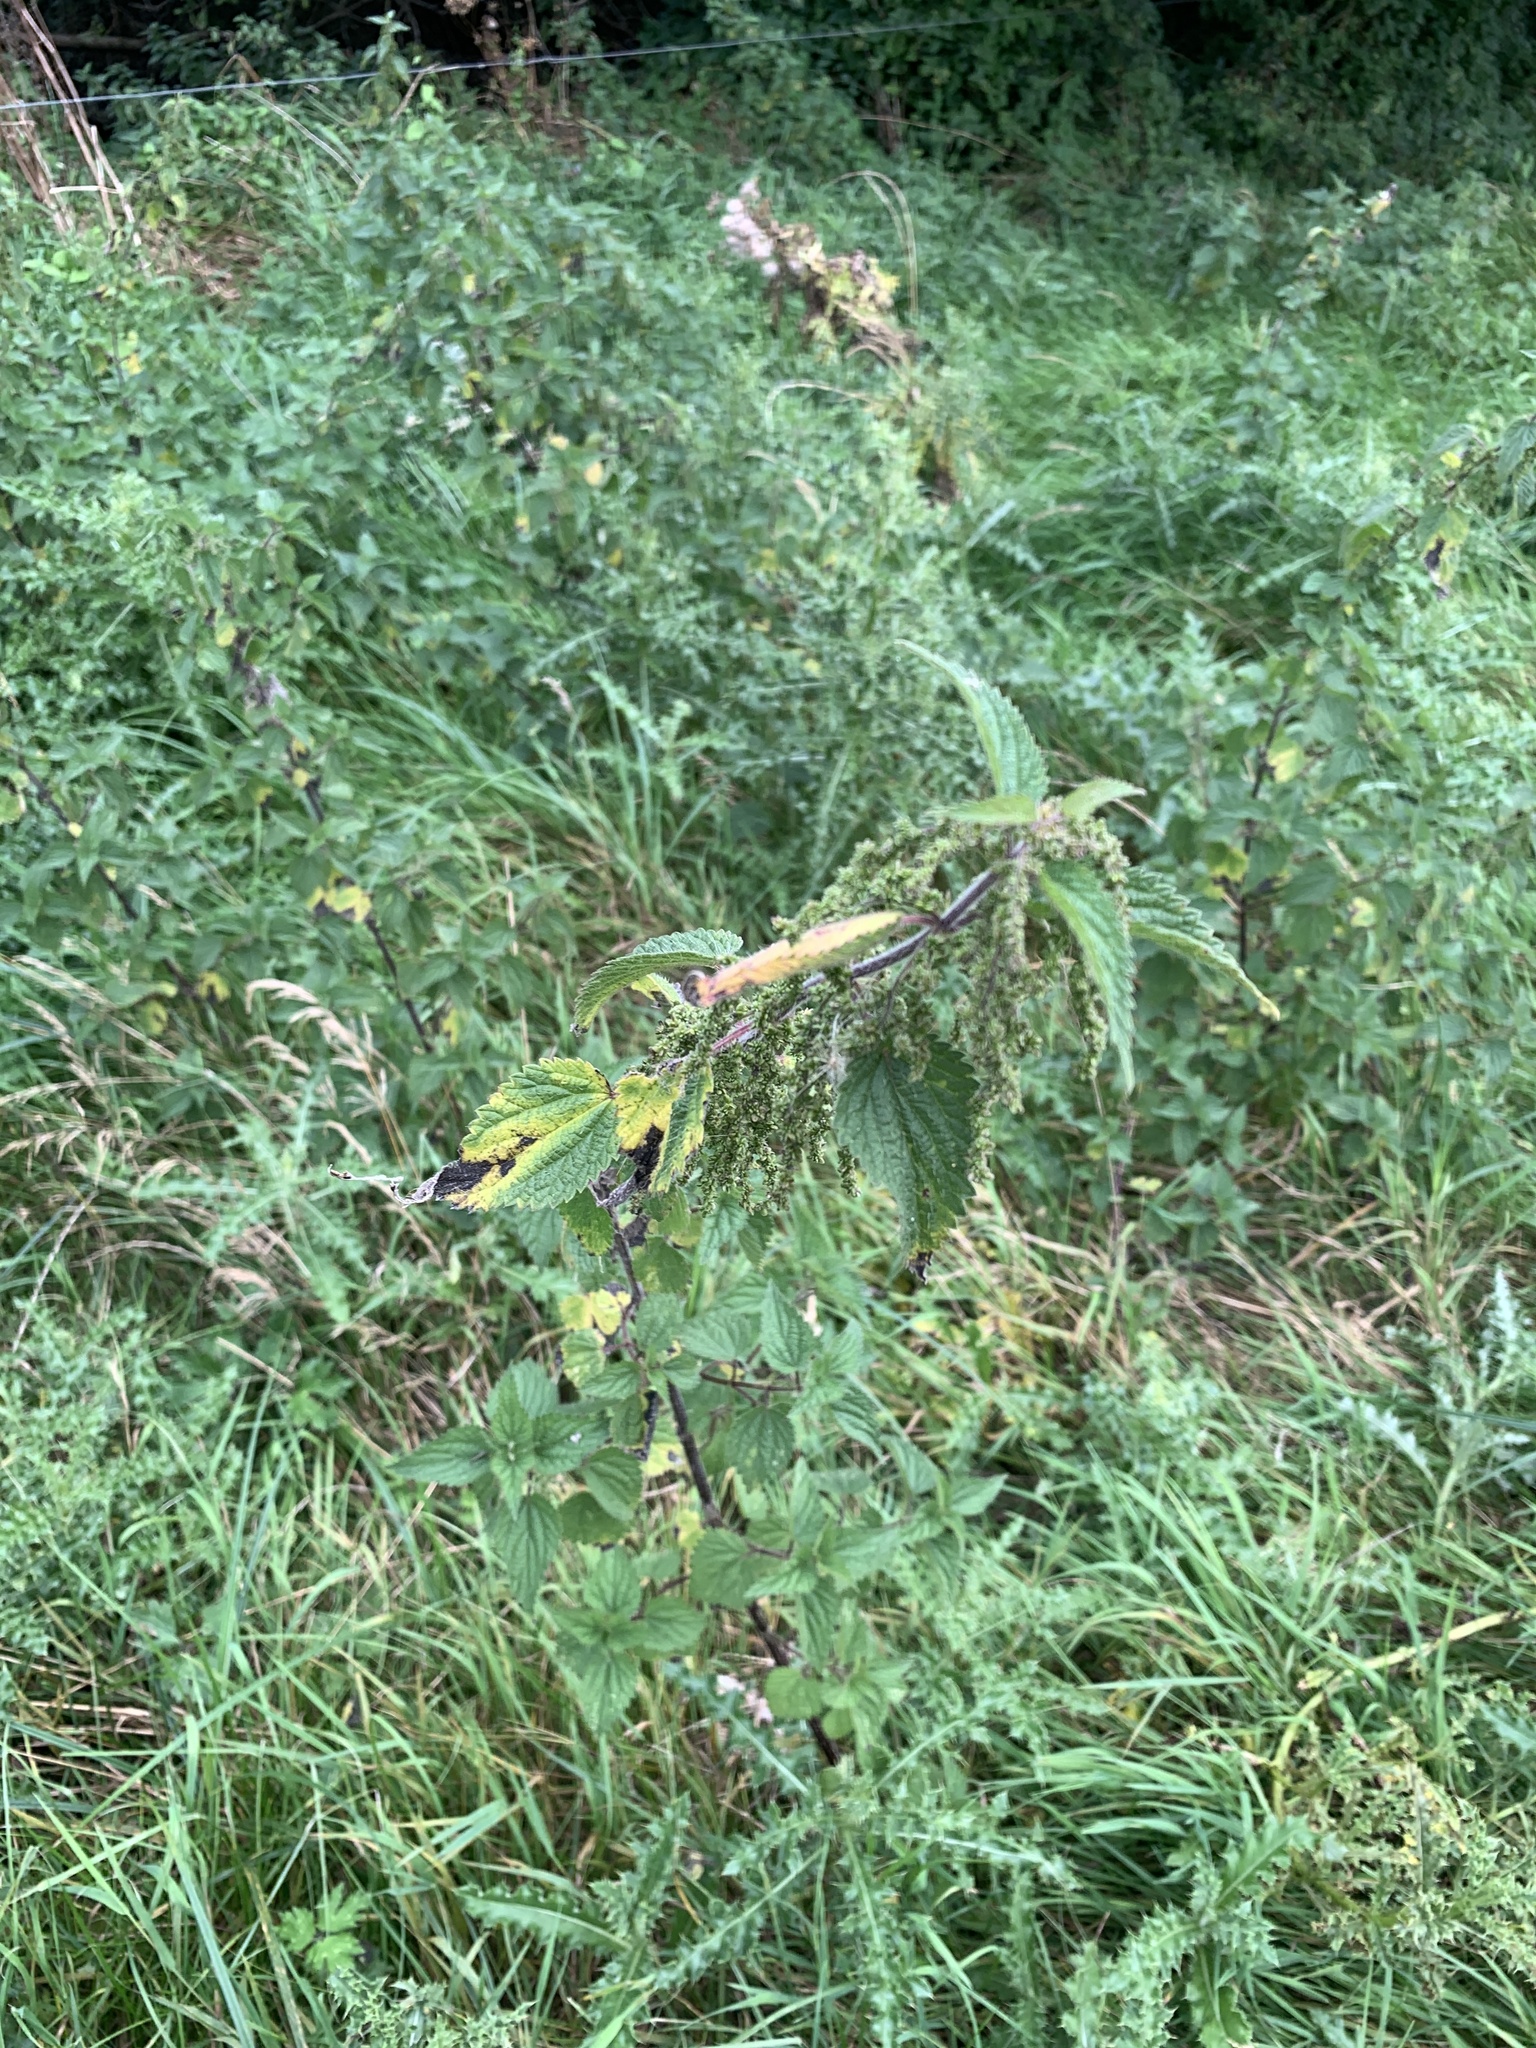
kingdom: Plantae
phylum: Tracheophyta
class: Magnoliopsida
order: Rosales
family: Urticaceae
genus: Urtica
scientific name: Urtica dioica
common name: Common nettle
